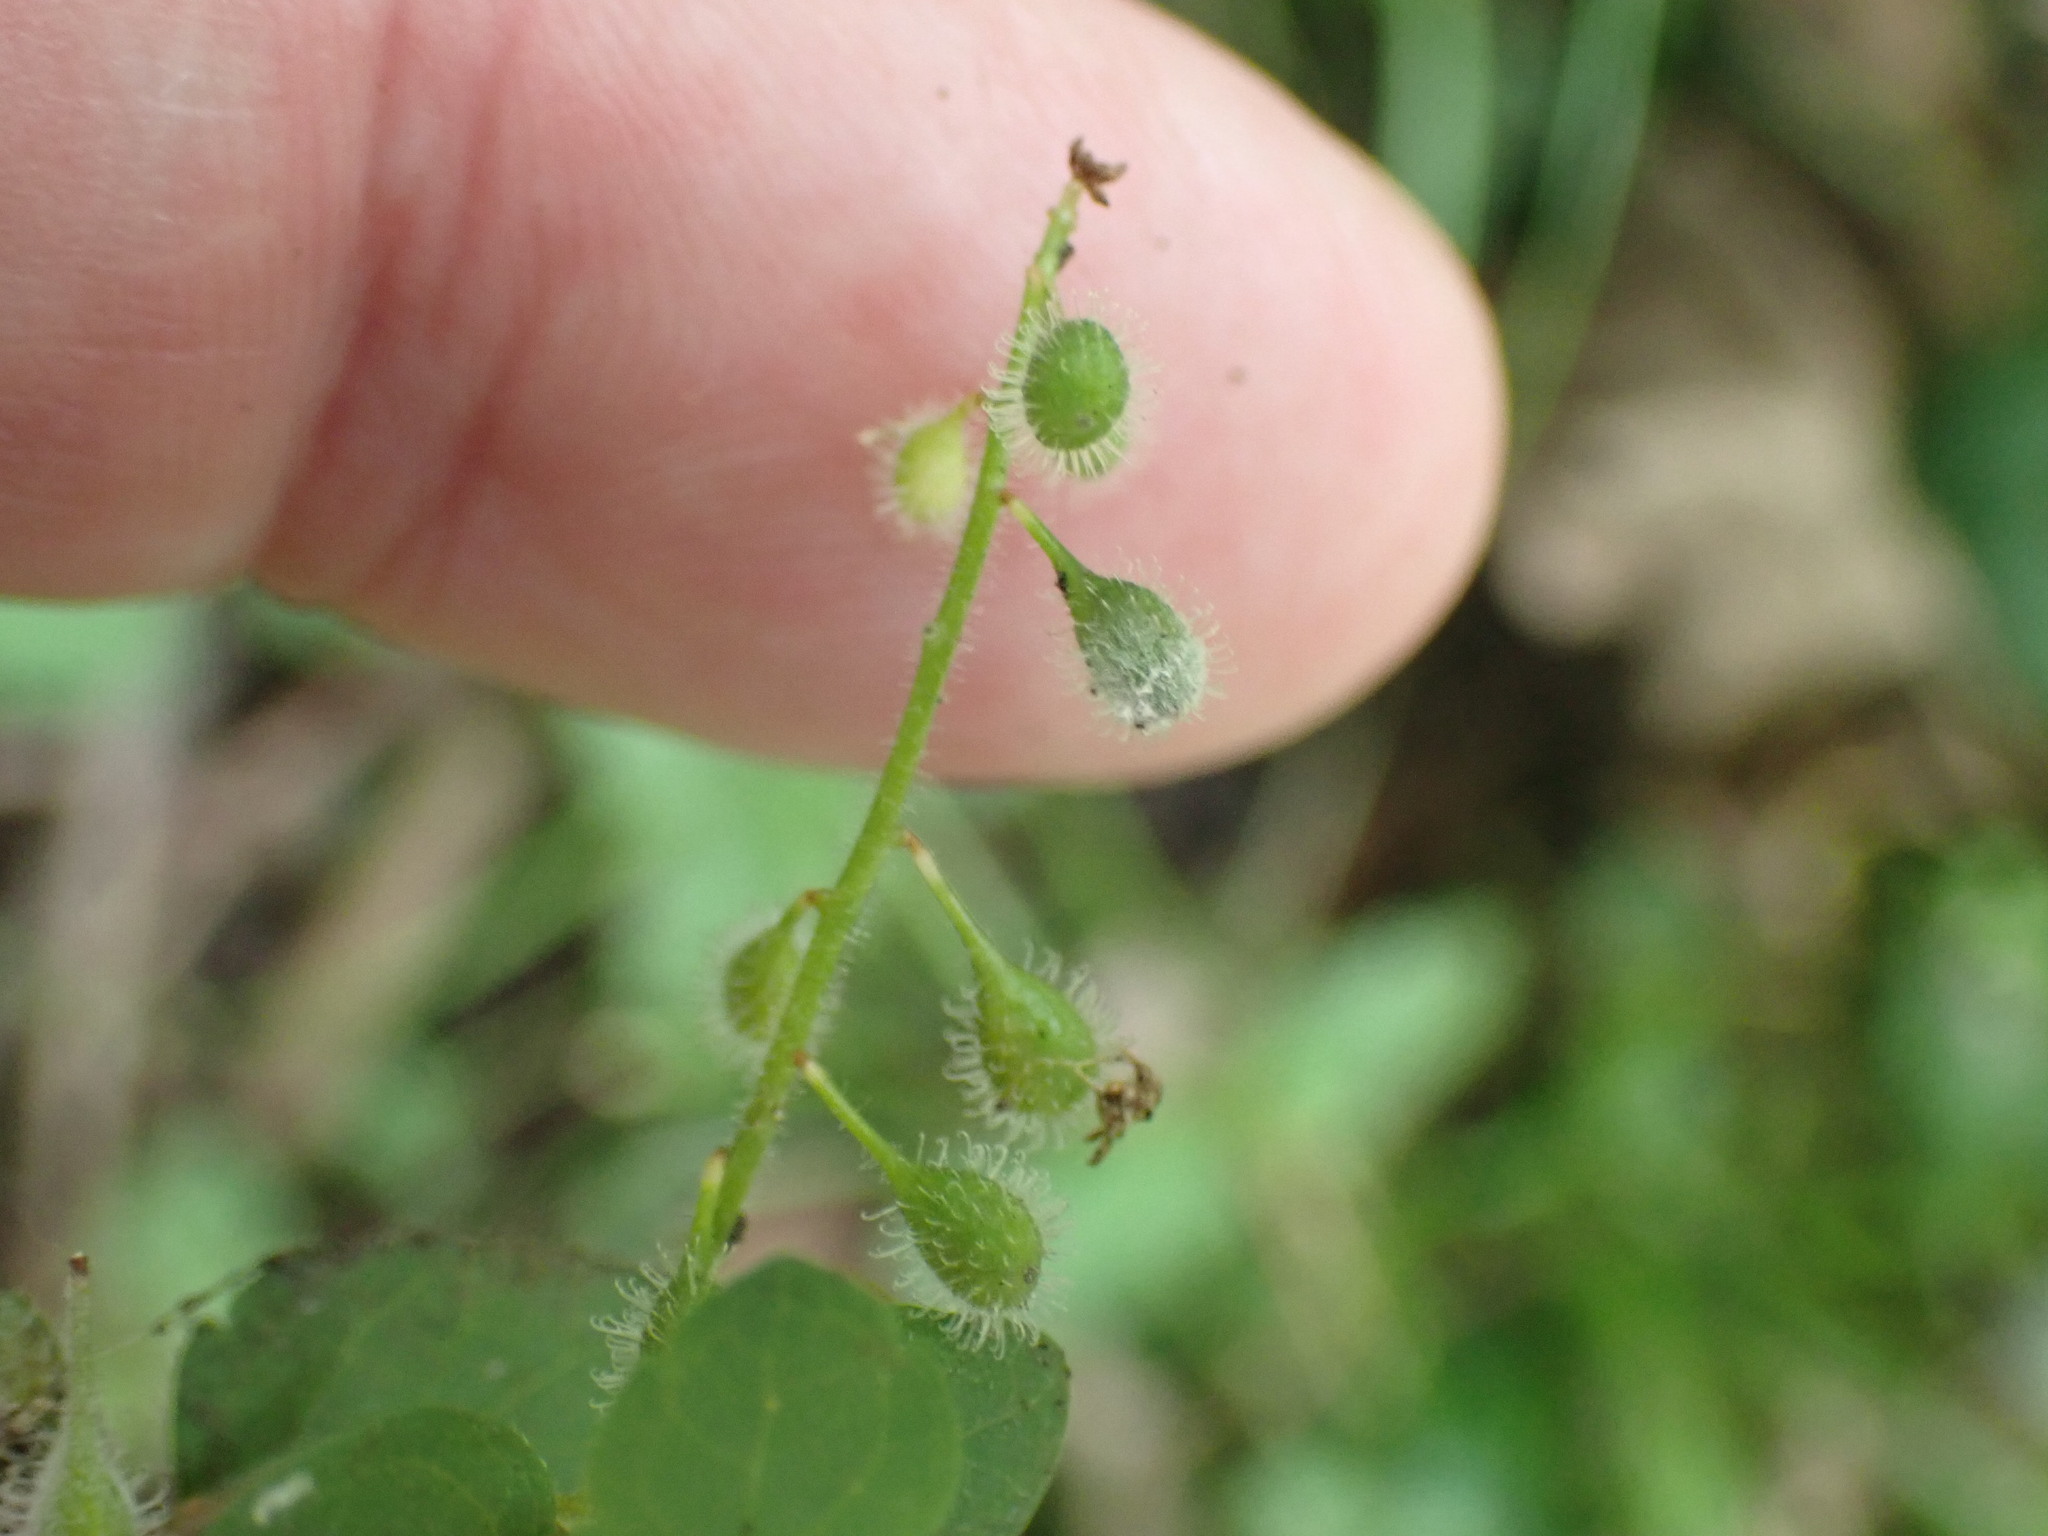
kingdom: Plantae
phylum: Tracheophyta
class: Magnoliopsida
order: Myrtales
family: Onagraceae
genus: Circaea
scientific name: Circaea lutetiana
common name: Enchanter's-nightshade
